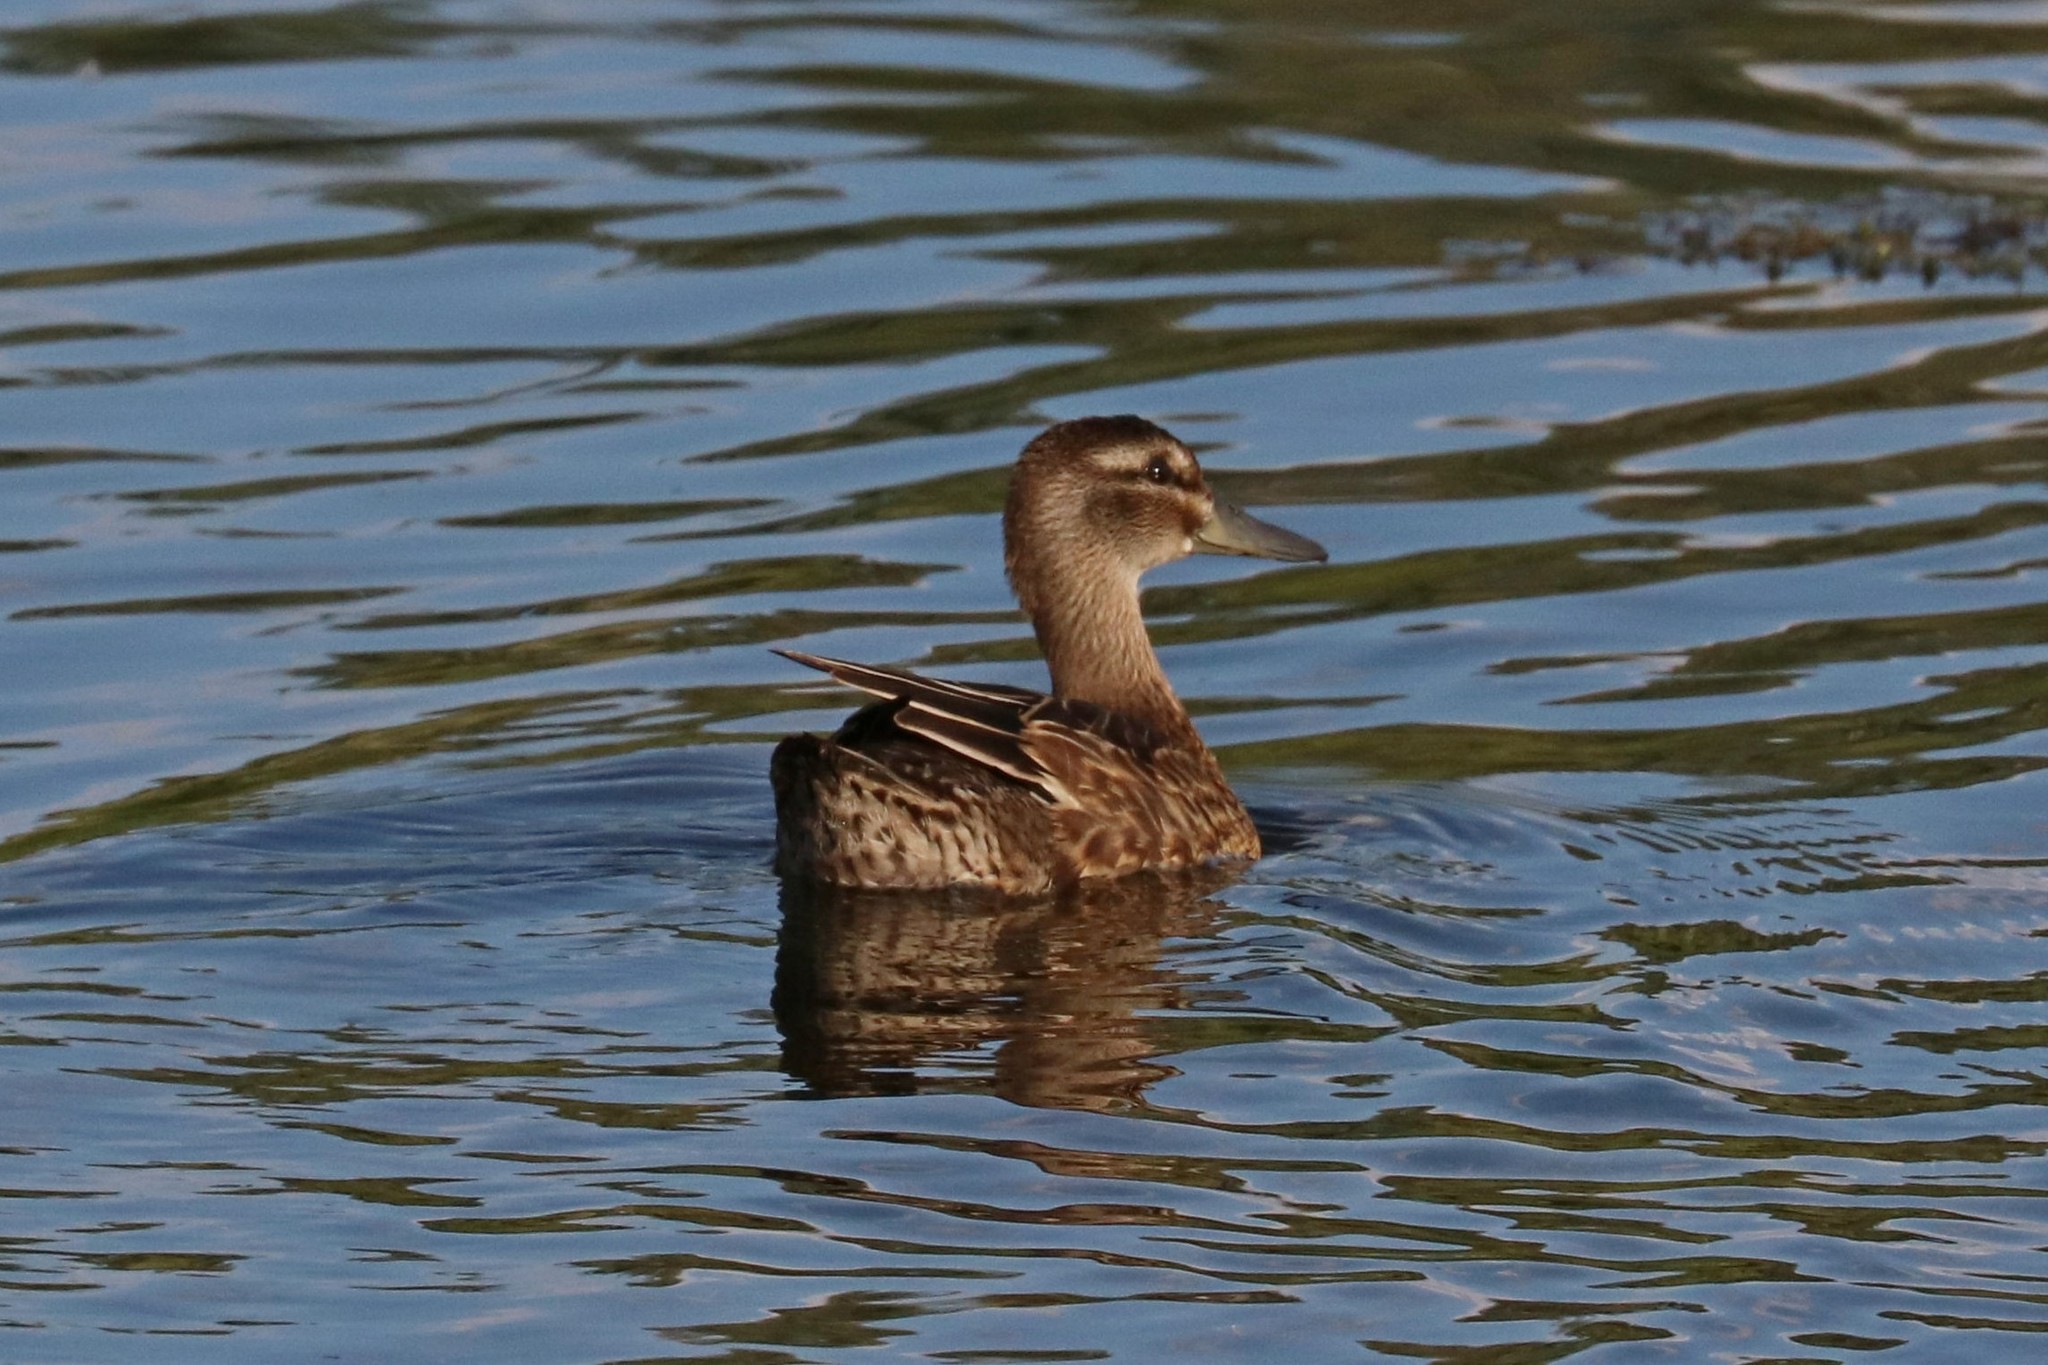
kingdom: Animalia
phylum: Chordata
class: Aves
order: Anseriformes
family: Anatidae
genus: Spatula
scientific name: Spatula querquedula
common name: Garganey
